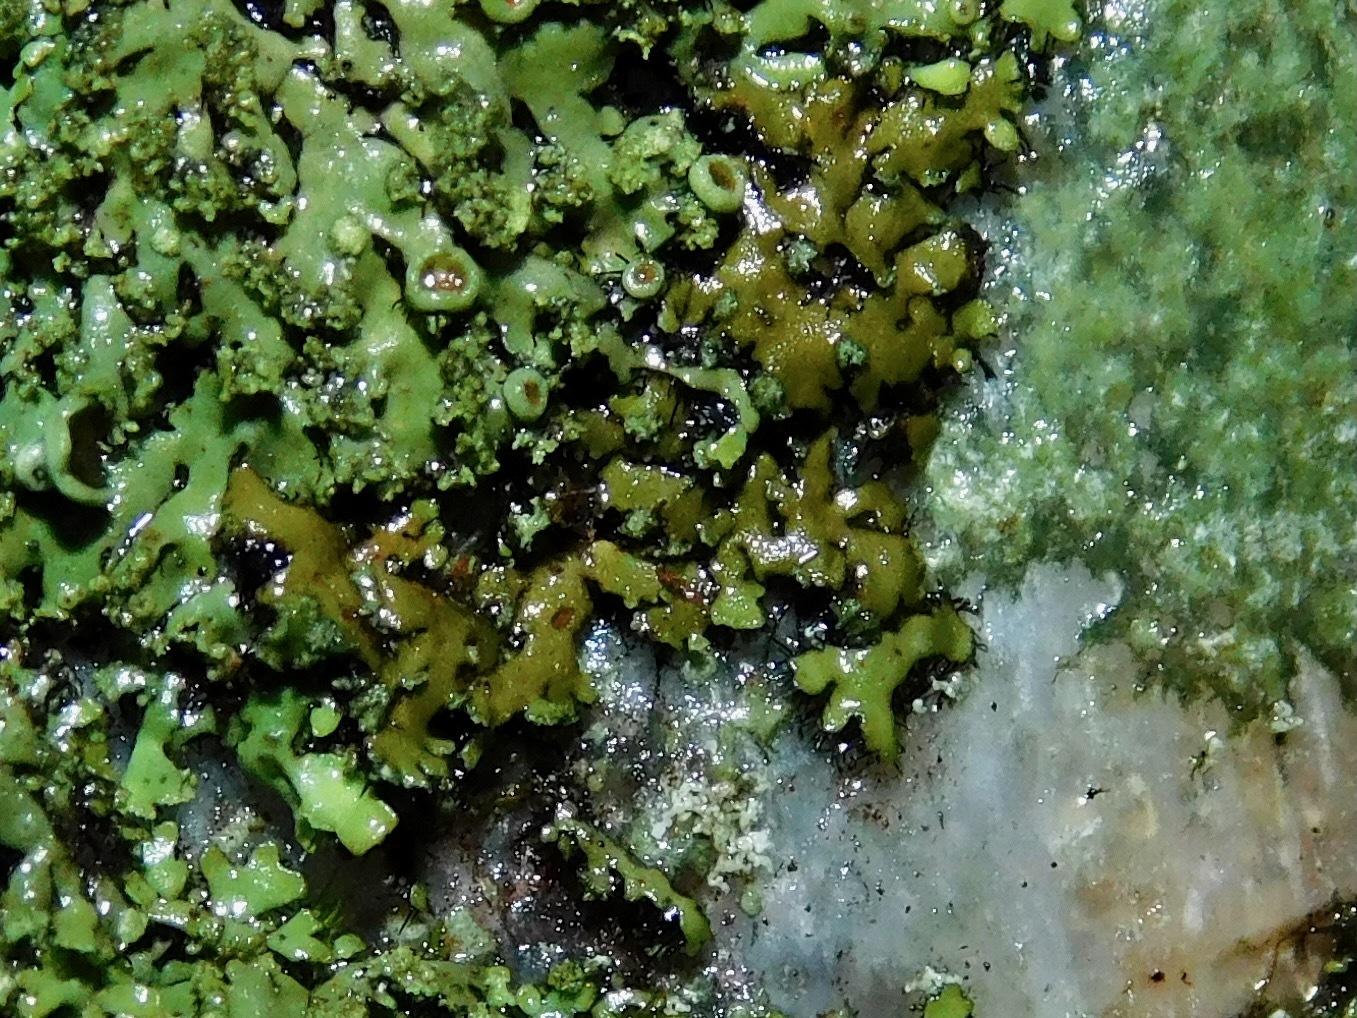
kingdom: Fungi
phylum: Ascomycota
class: Lecanoromycetes
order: Caliciales
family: Physciaceae
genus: Phaeophyscia
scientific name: Phaeophyscia ciliata
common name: Smooth shadow lichen
